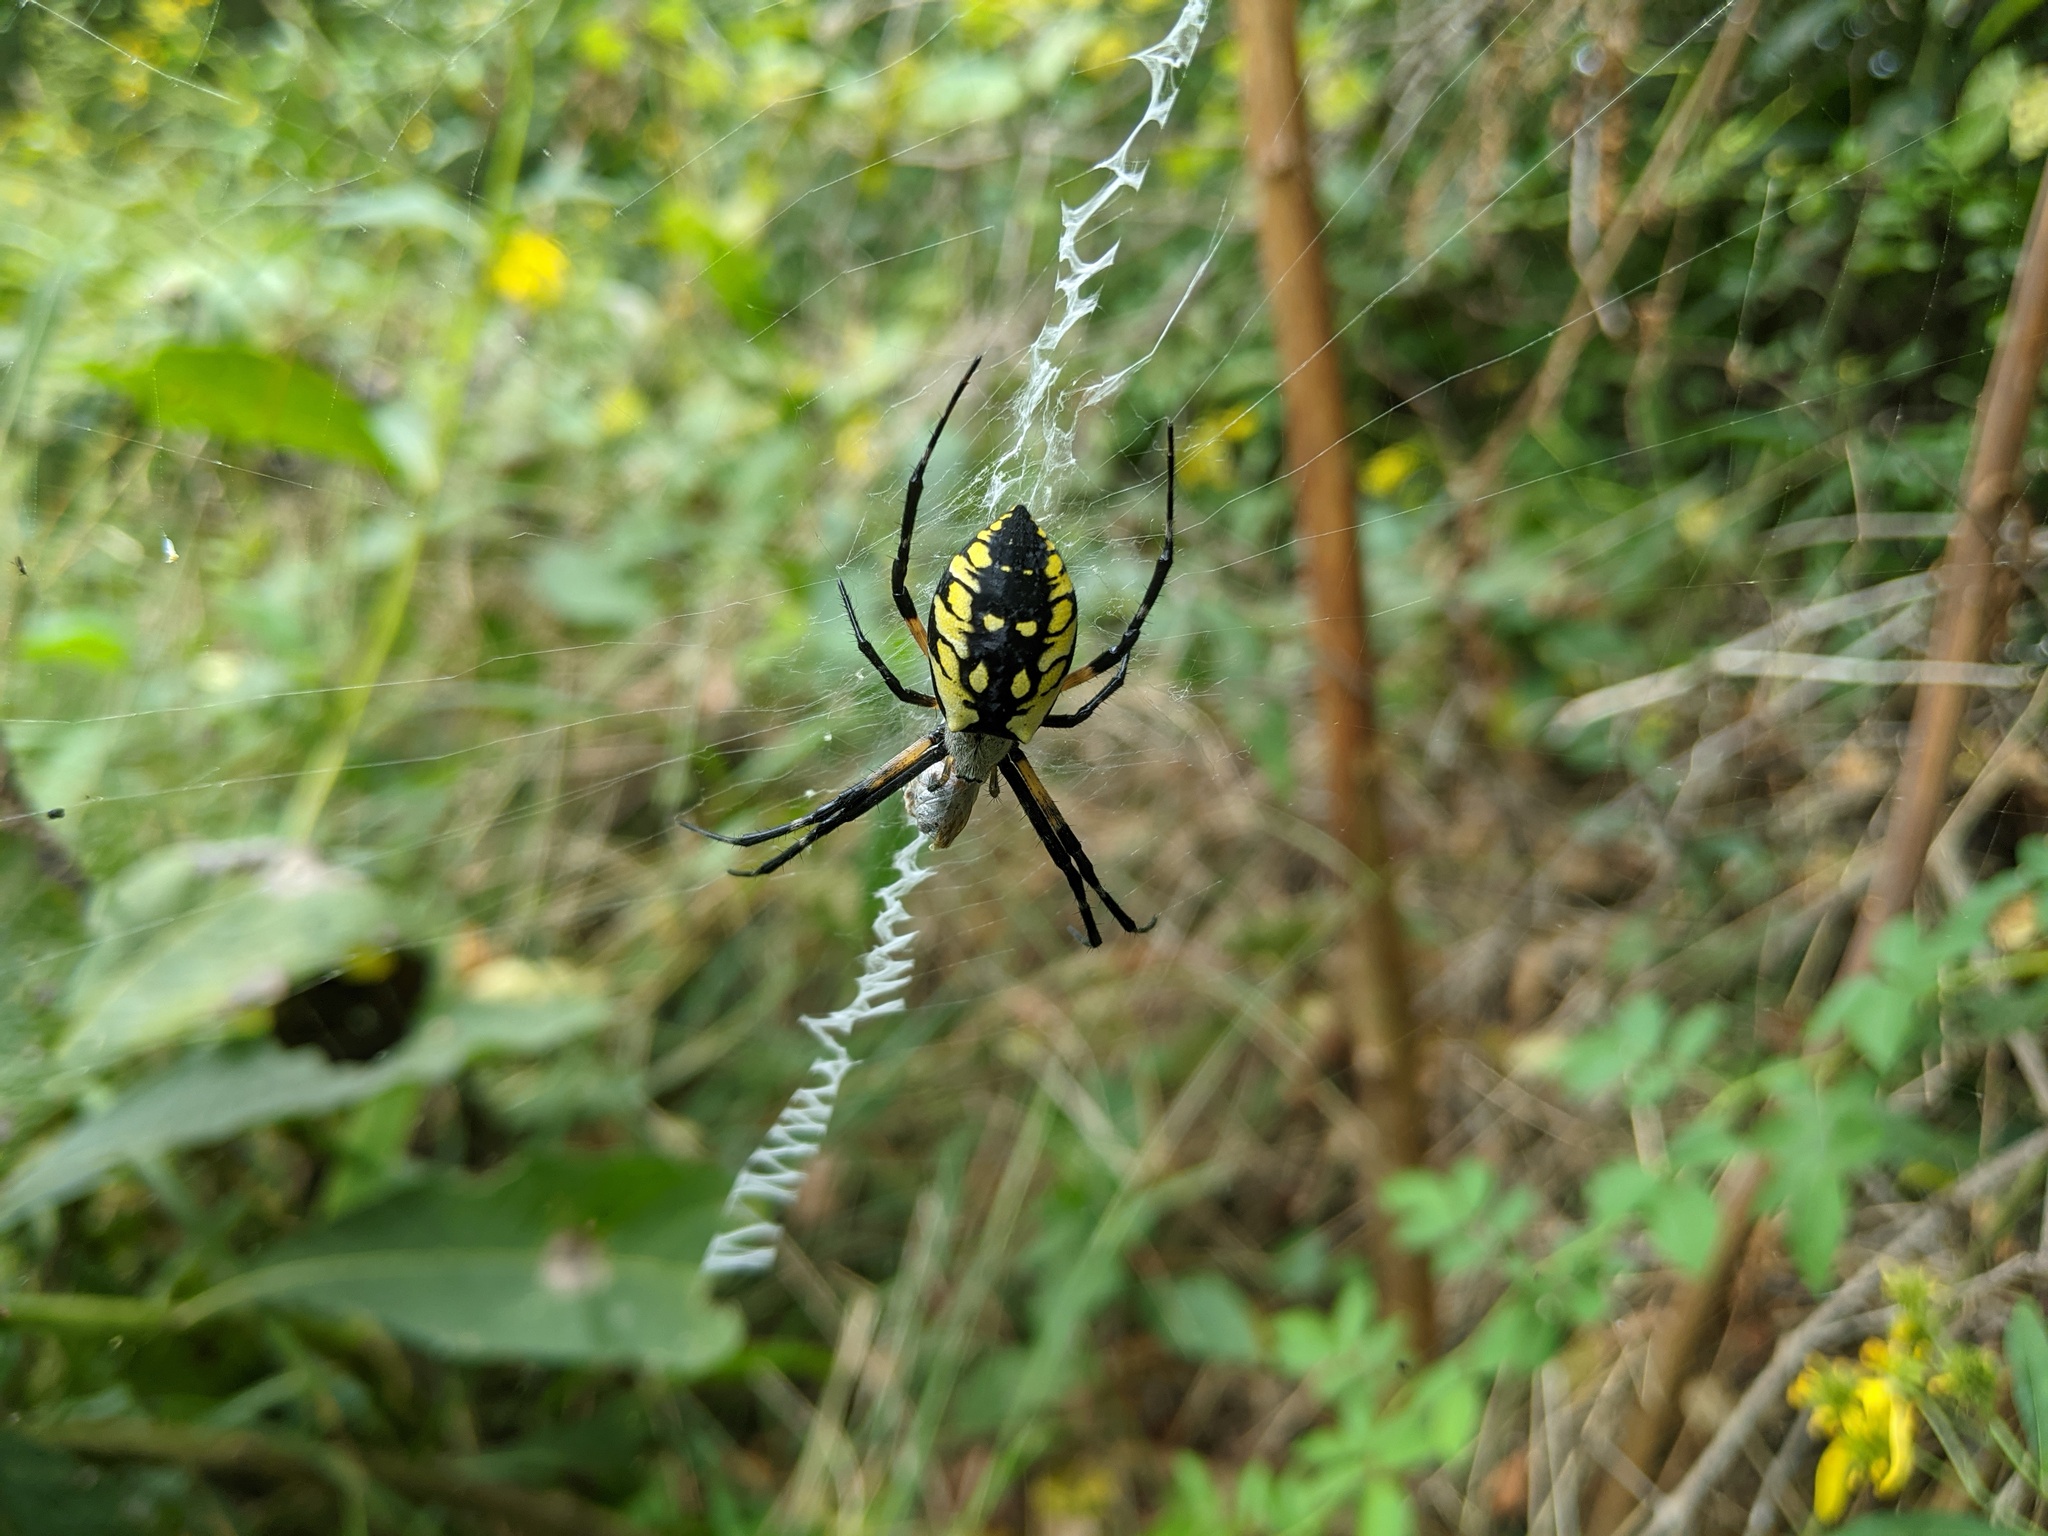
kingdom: Animalia
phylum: Arthropoda
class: Arachnida
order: Araneae
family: Araneidae
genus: Argiope
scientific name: Argiope aurantia
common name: Orb weavers
